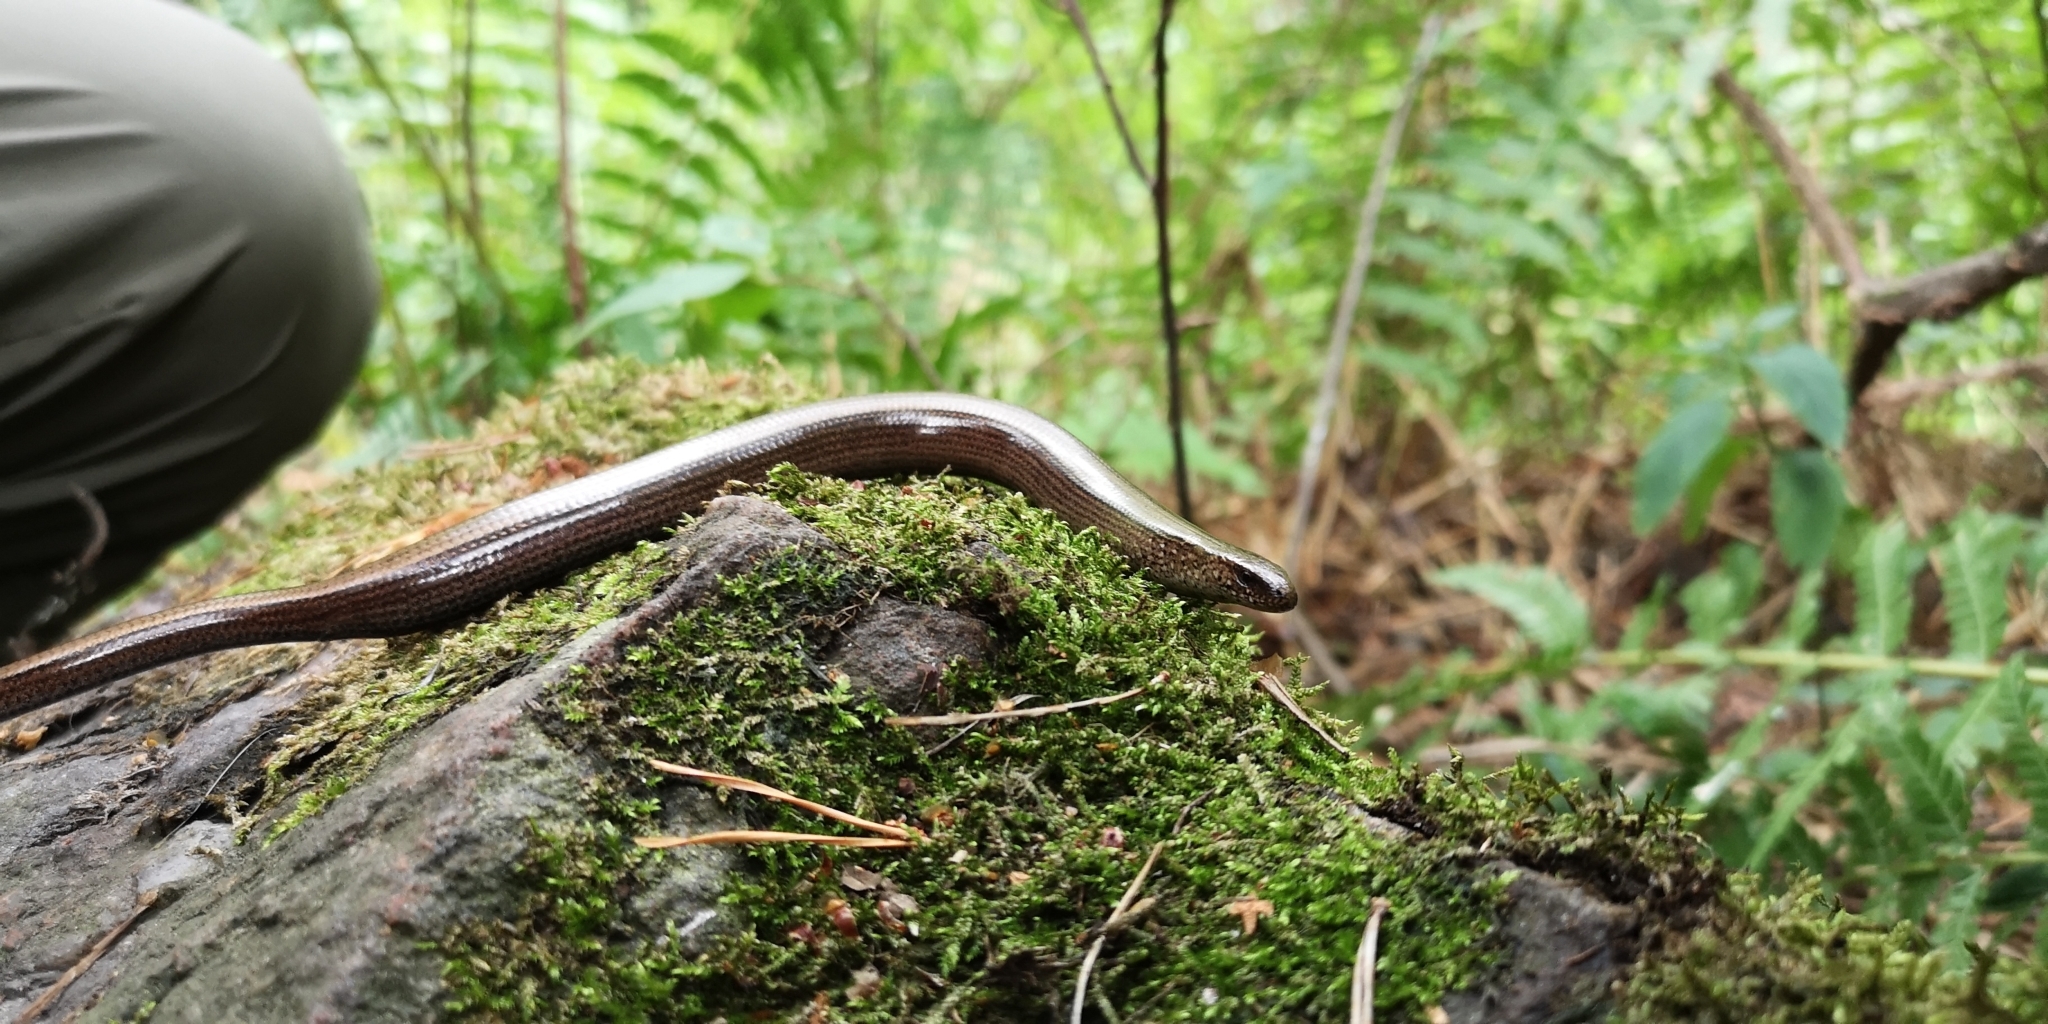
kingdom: Animalia
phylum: Chordata
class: Squamata
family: Anguidae
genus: Anguis
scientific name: Anguis colchica
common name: Slow worm
